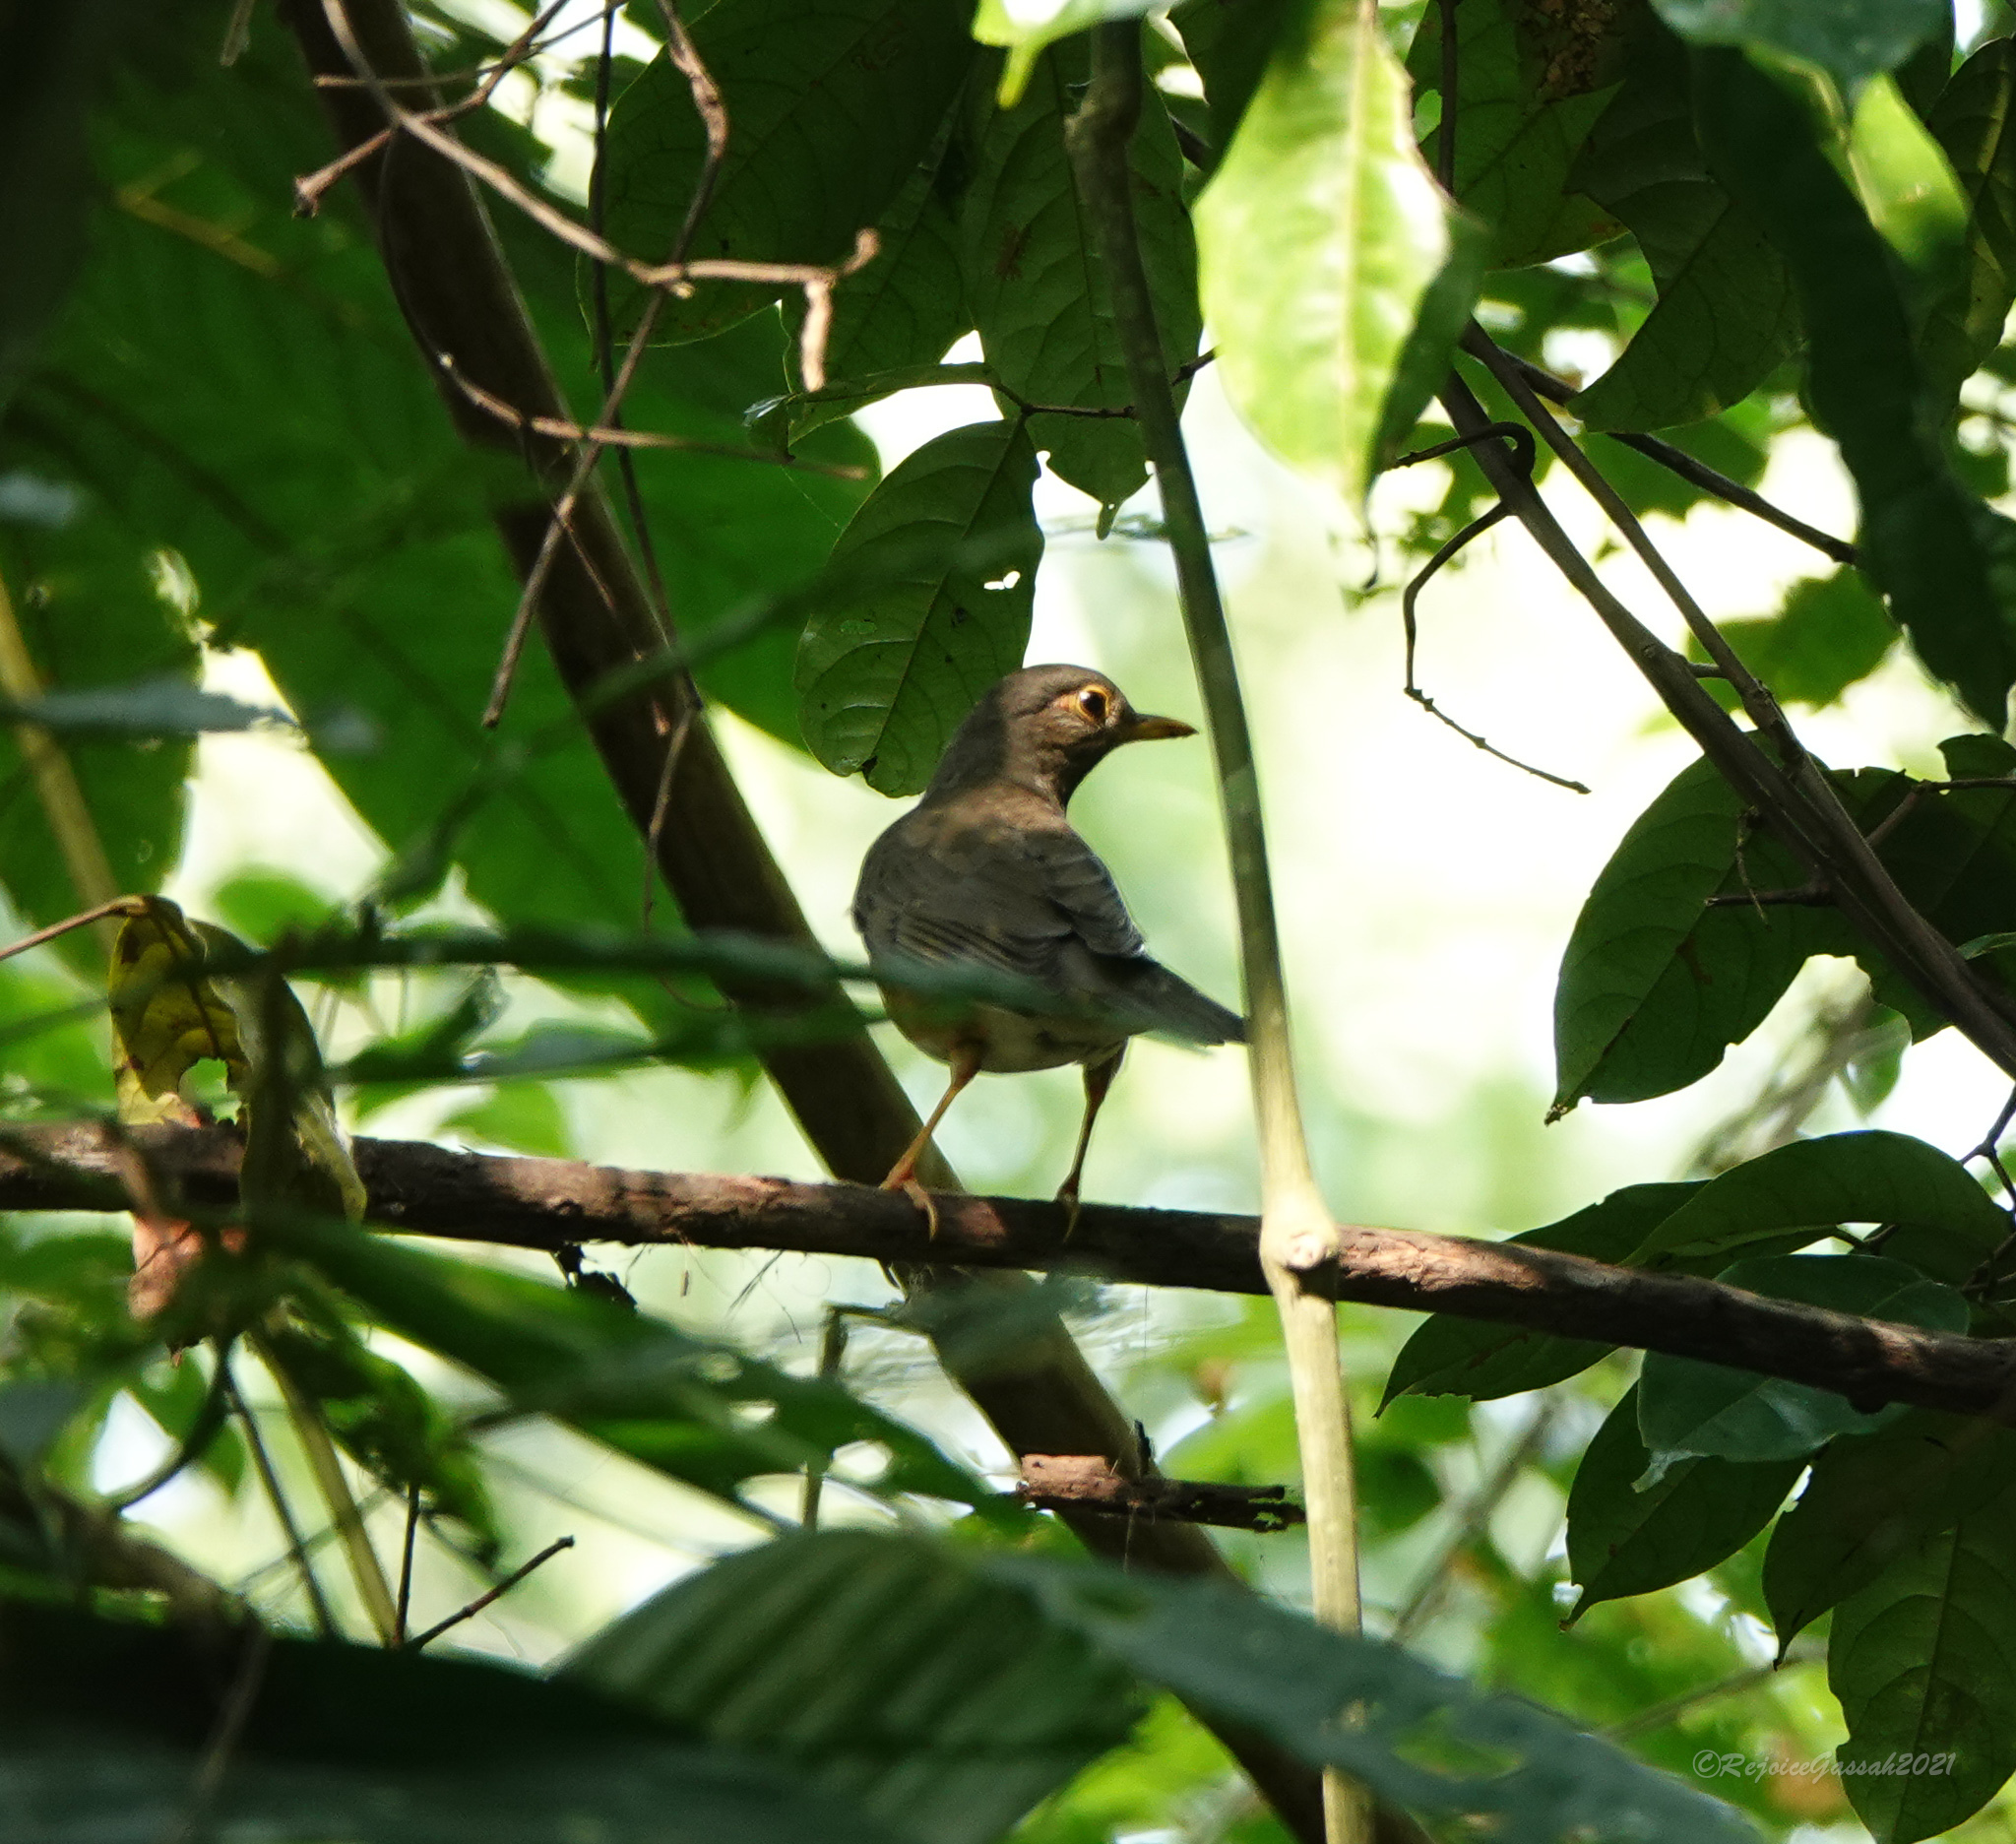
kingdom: Animalia
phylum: Chordata
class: Aves
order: Passeriformes
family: Turdidae
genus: Turdus
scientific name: Turdus dissimilis
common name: Black-breasted thrush
